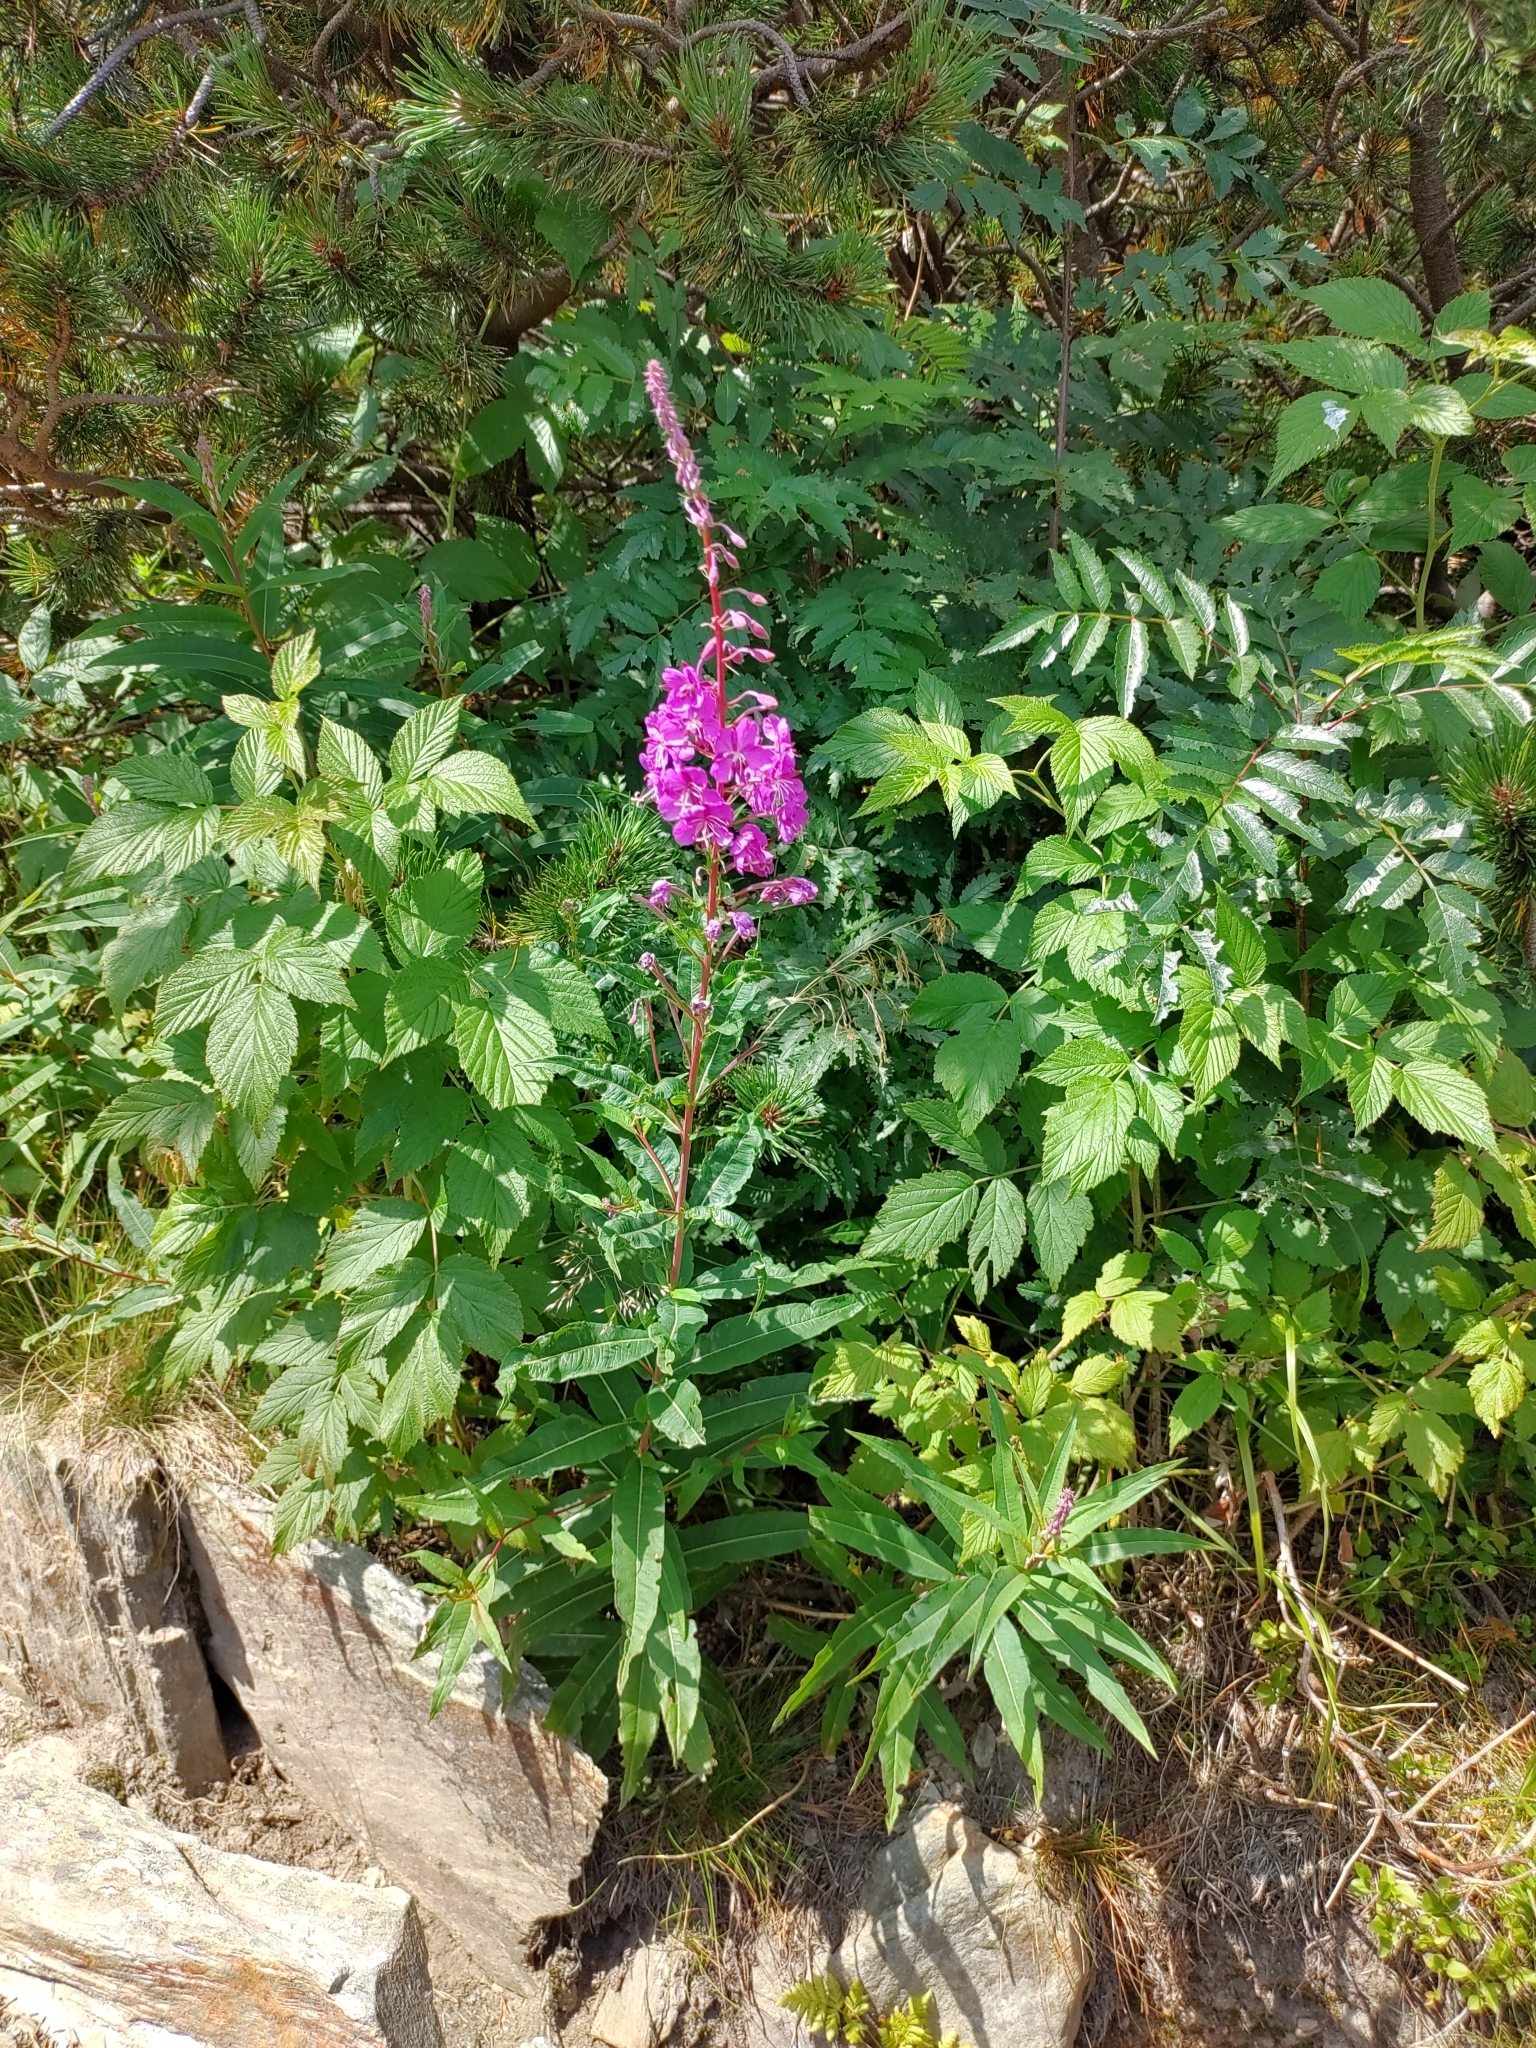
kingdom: Plantae
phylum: Tracheophyta
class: Magnoliopsida
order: Myrtales
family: Onagraceae
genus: Chamaenerion
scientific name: Chamaenerion angustifolium
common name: Fireweed
